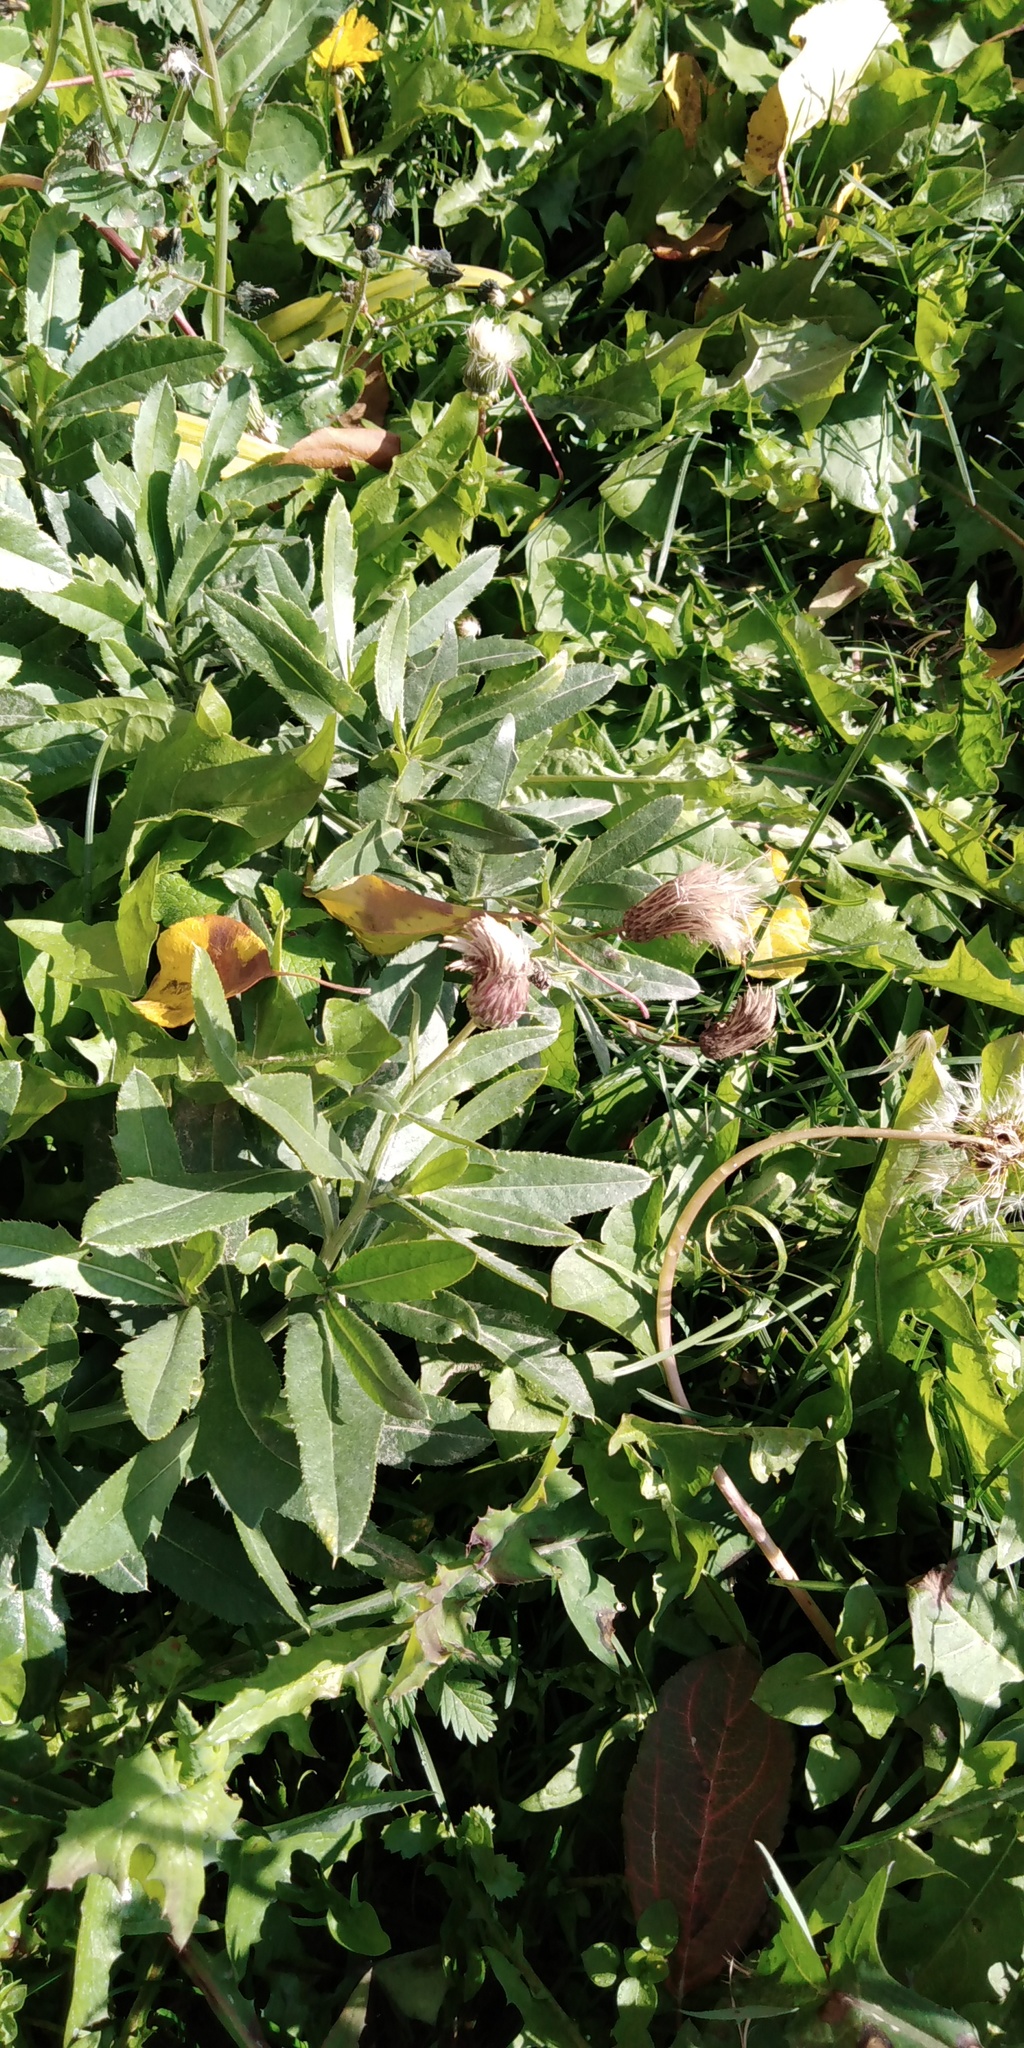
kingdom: Plantae
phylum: Tracheophyta
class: Magnoliopsida
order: Asterales
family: Asteraceae
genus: Cirsium
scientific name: Cirsium arvense
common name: Creeping thistle
